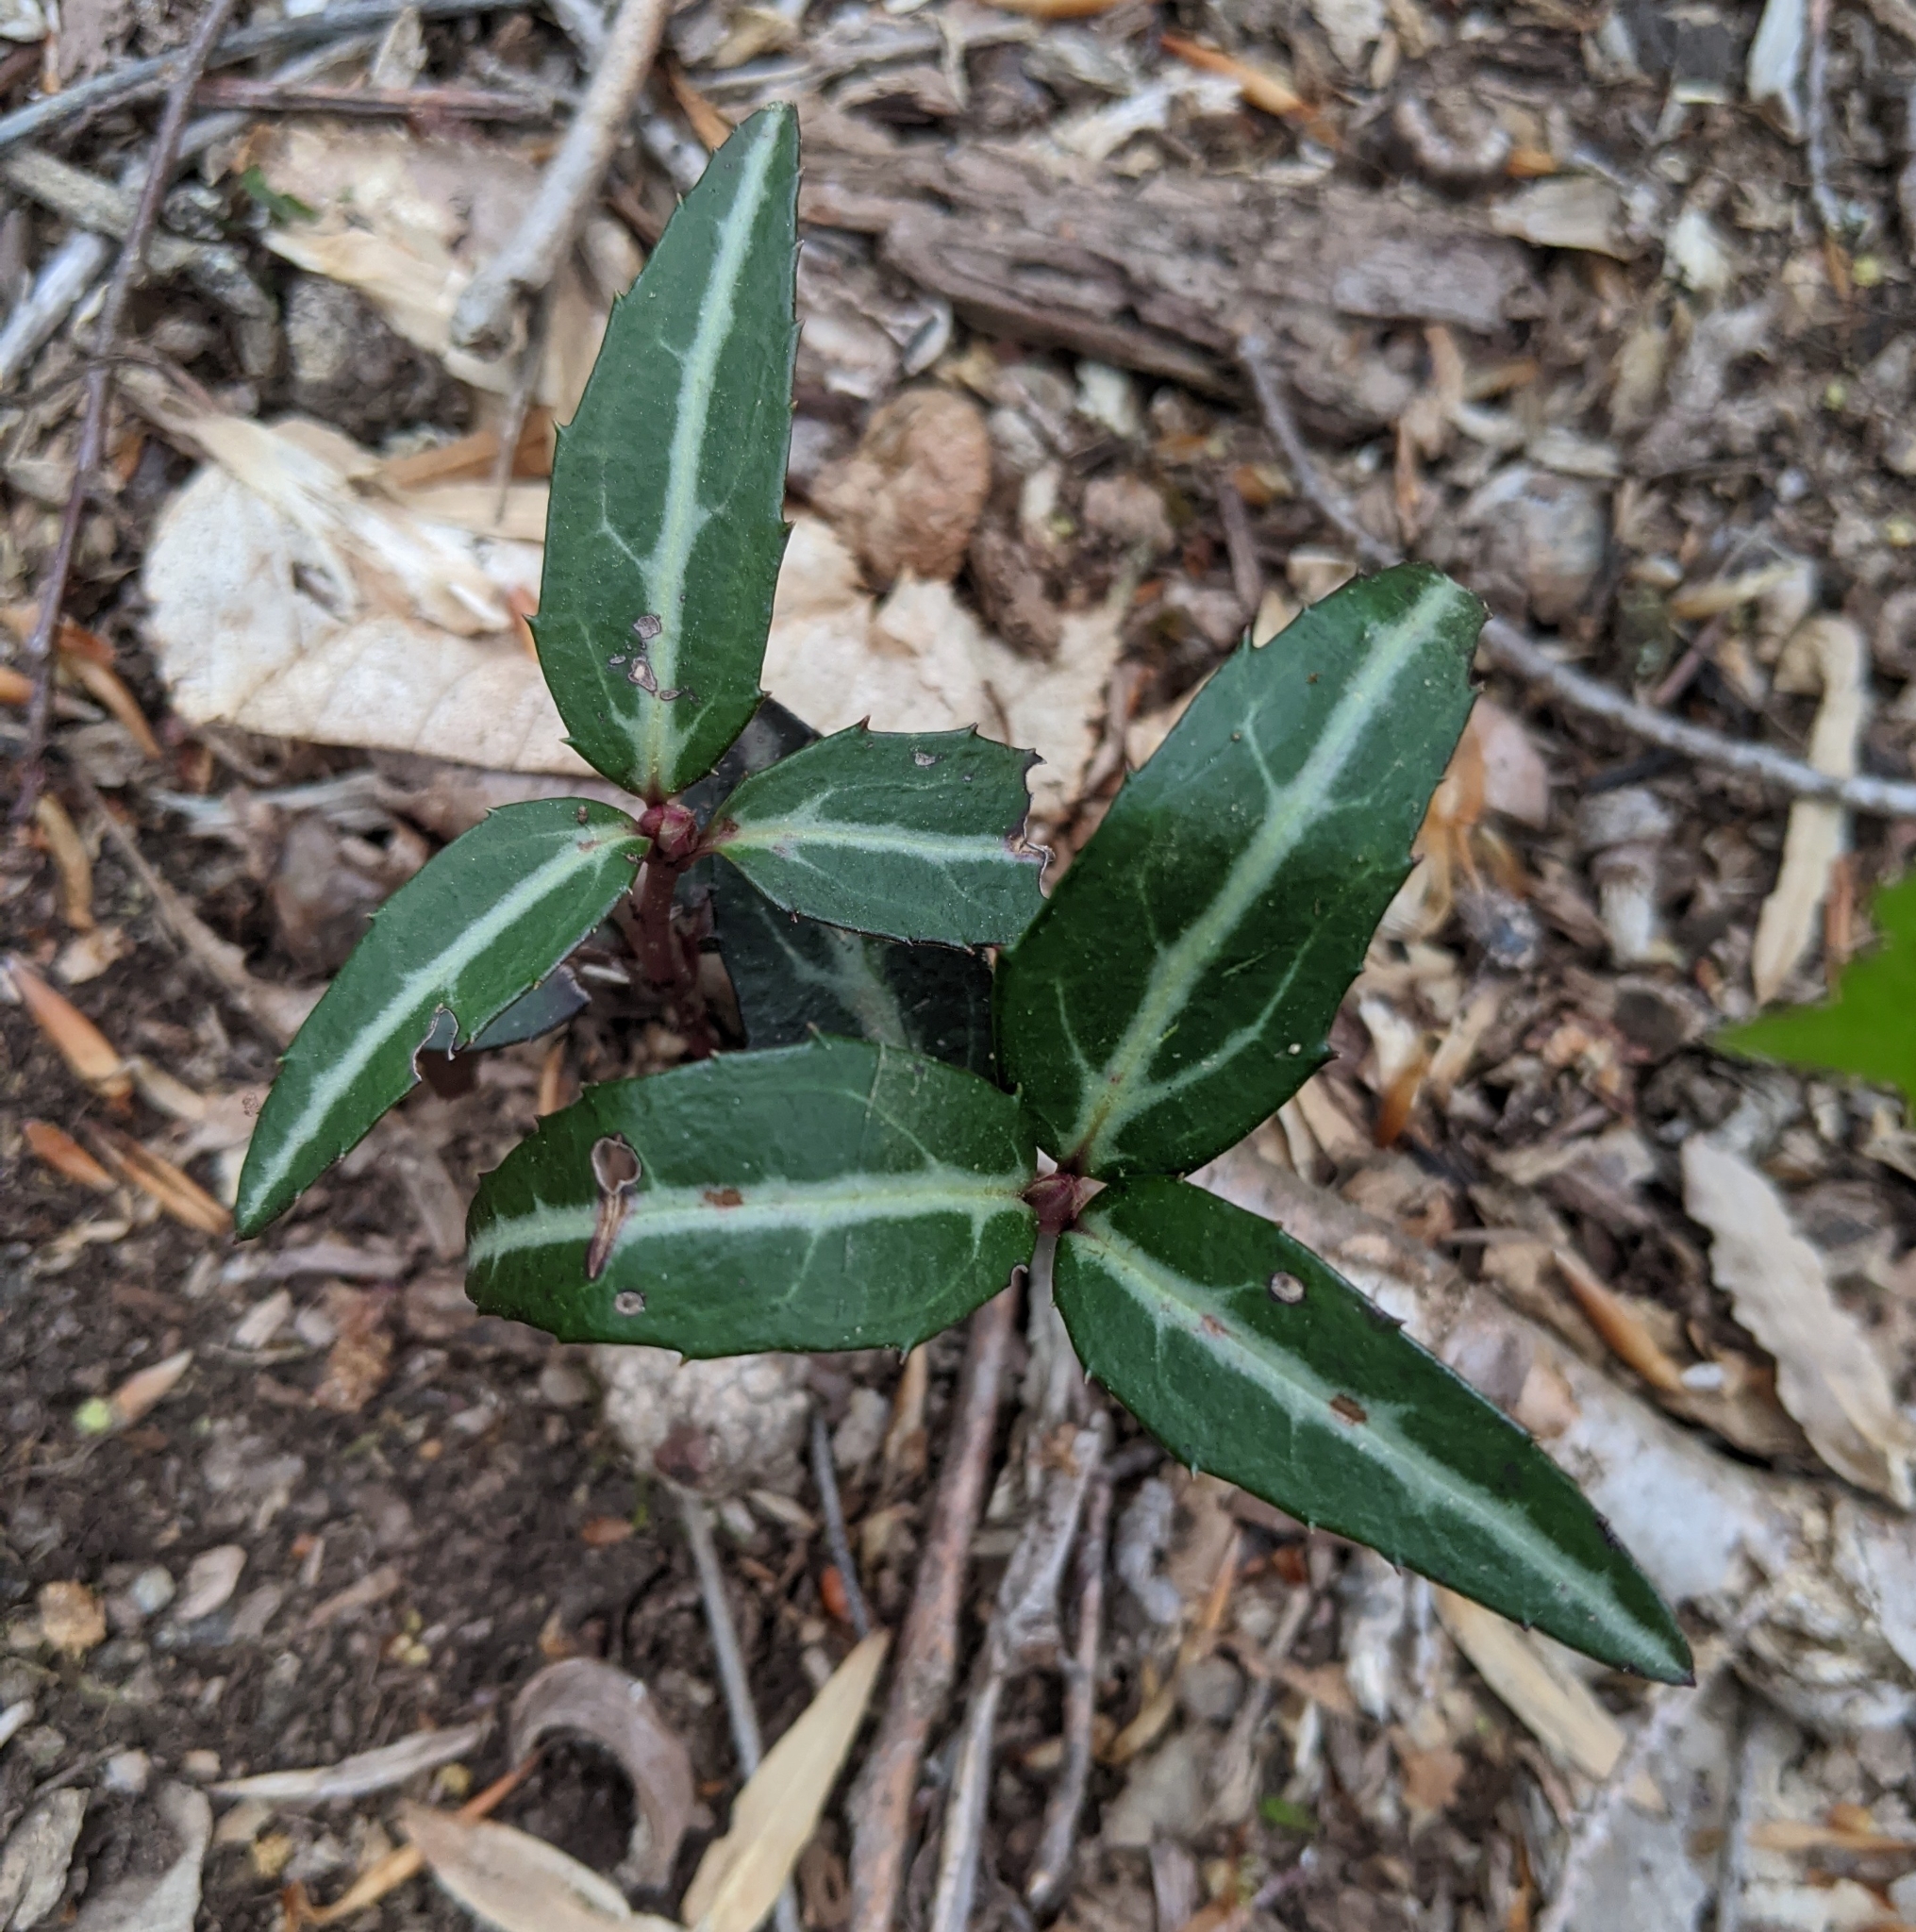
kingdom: Plantae
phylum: Tracheophyta
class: Magnoliopsida
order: Ericales
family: Ericaceae
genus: Chimaphila
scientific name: Chimaphila maculata
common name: Spotted pipsissewa
